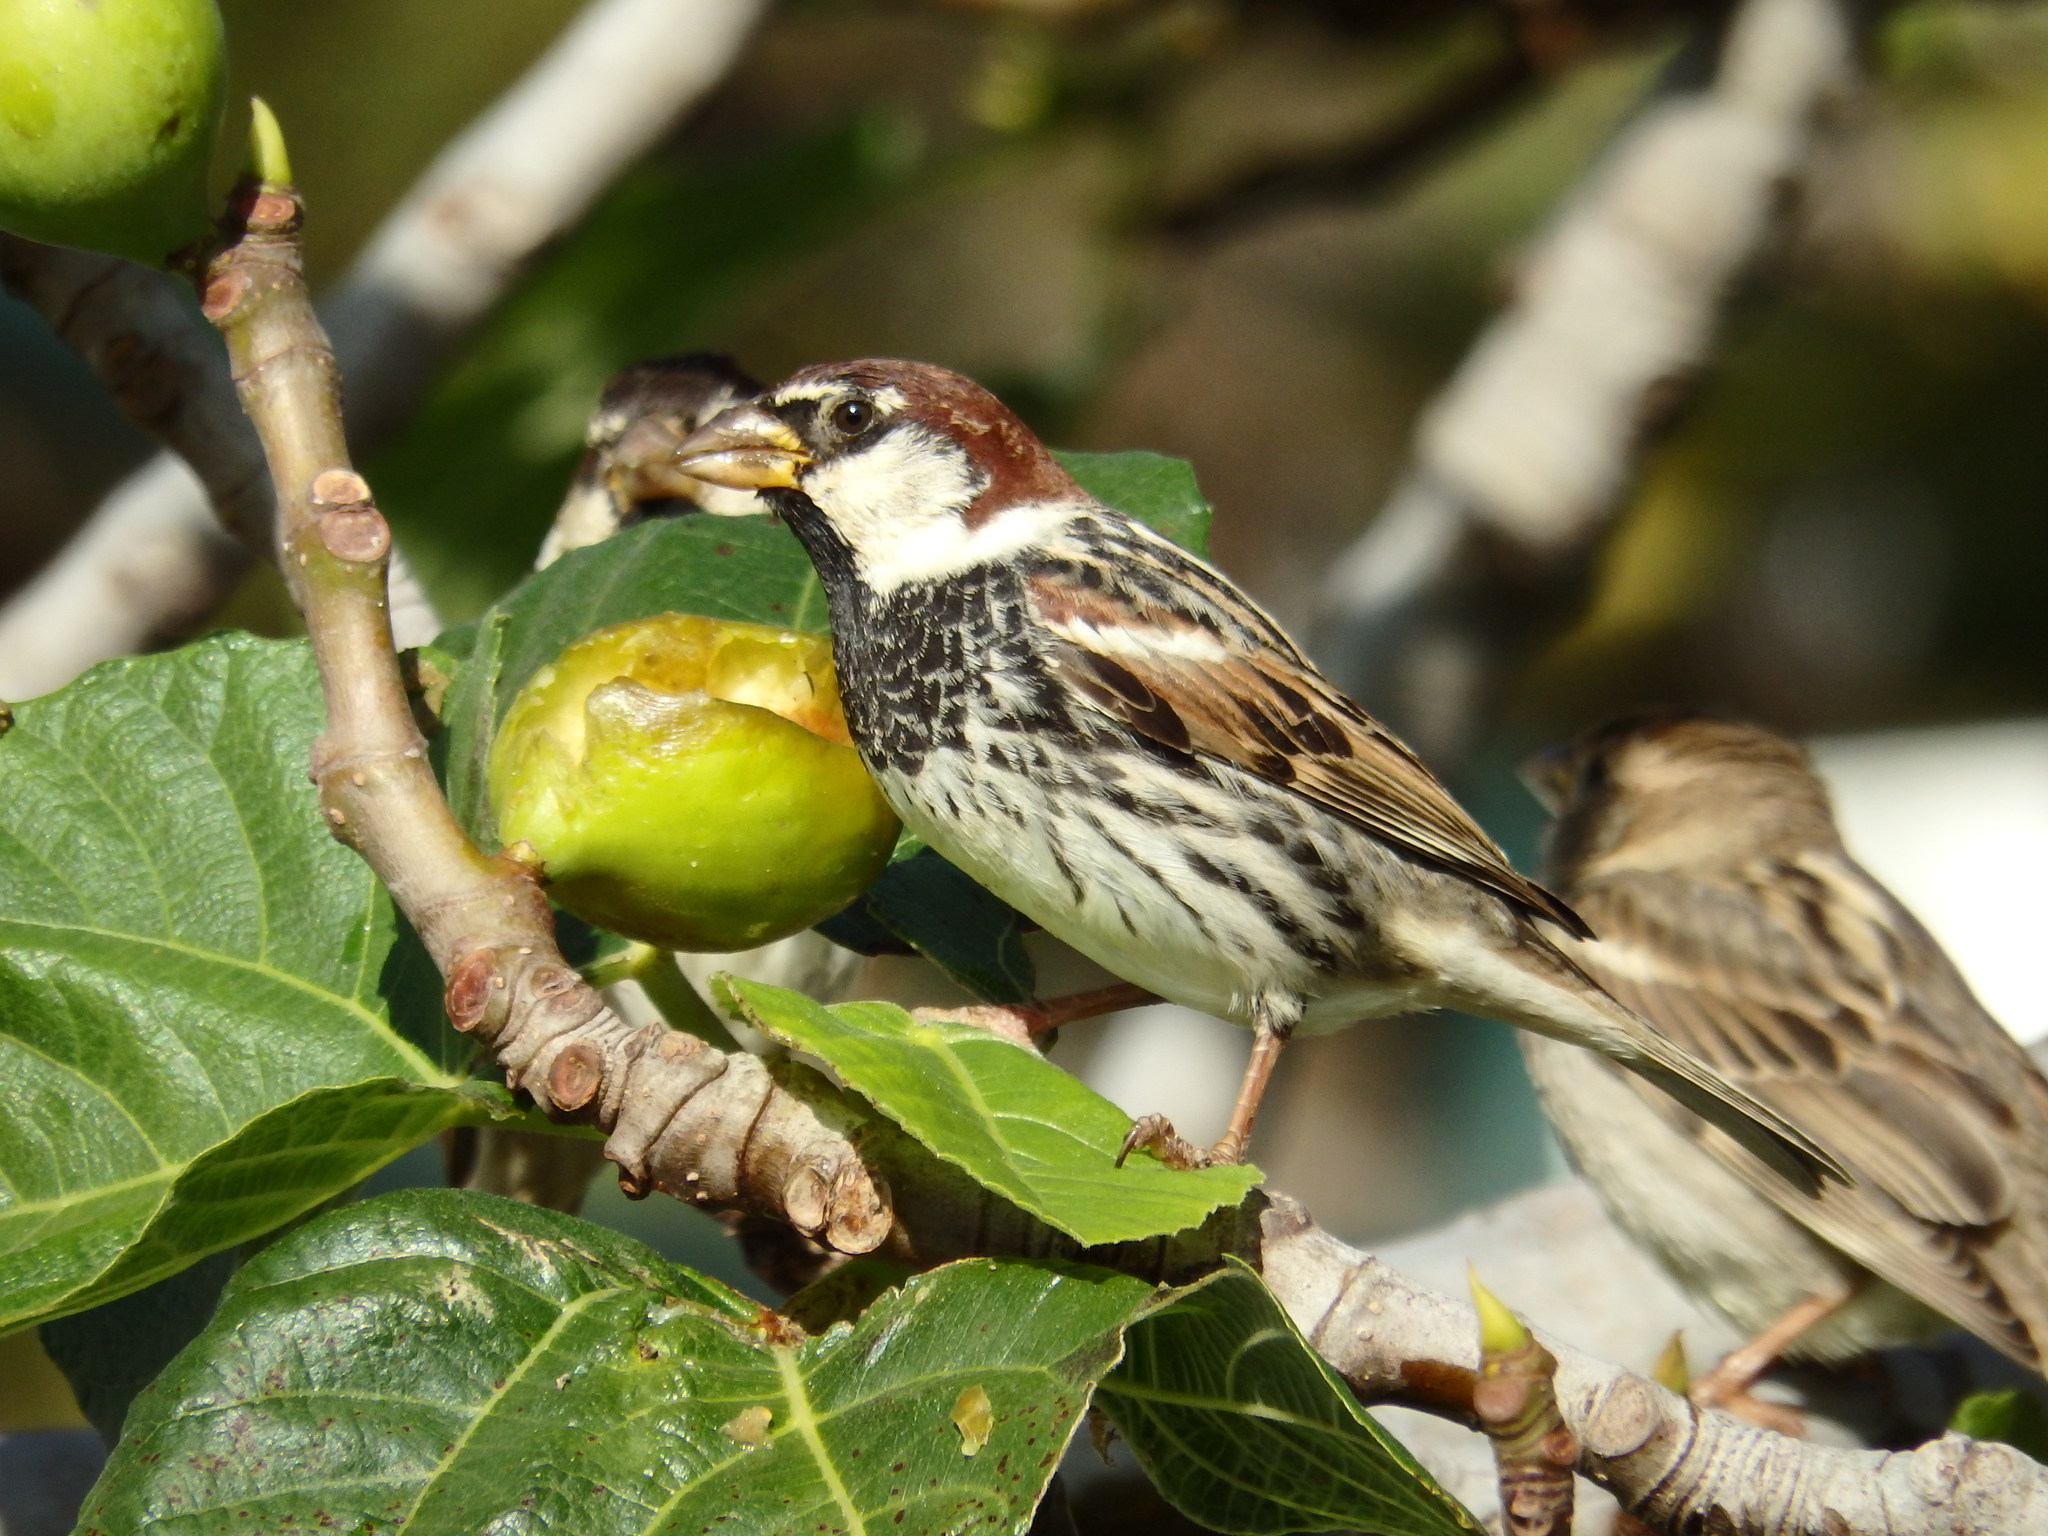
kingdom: Animalia
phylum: Chordata
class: Aves
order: Passeriformes
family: Passeridae
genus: Passer
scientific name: Passer hispaniolensis
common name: Spanish sparrow
